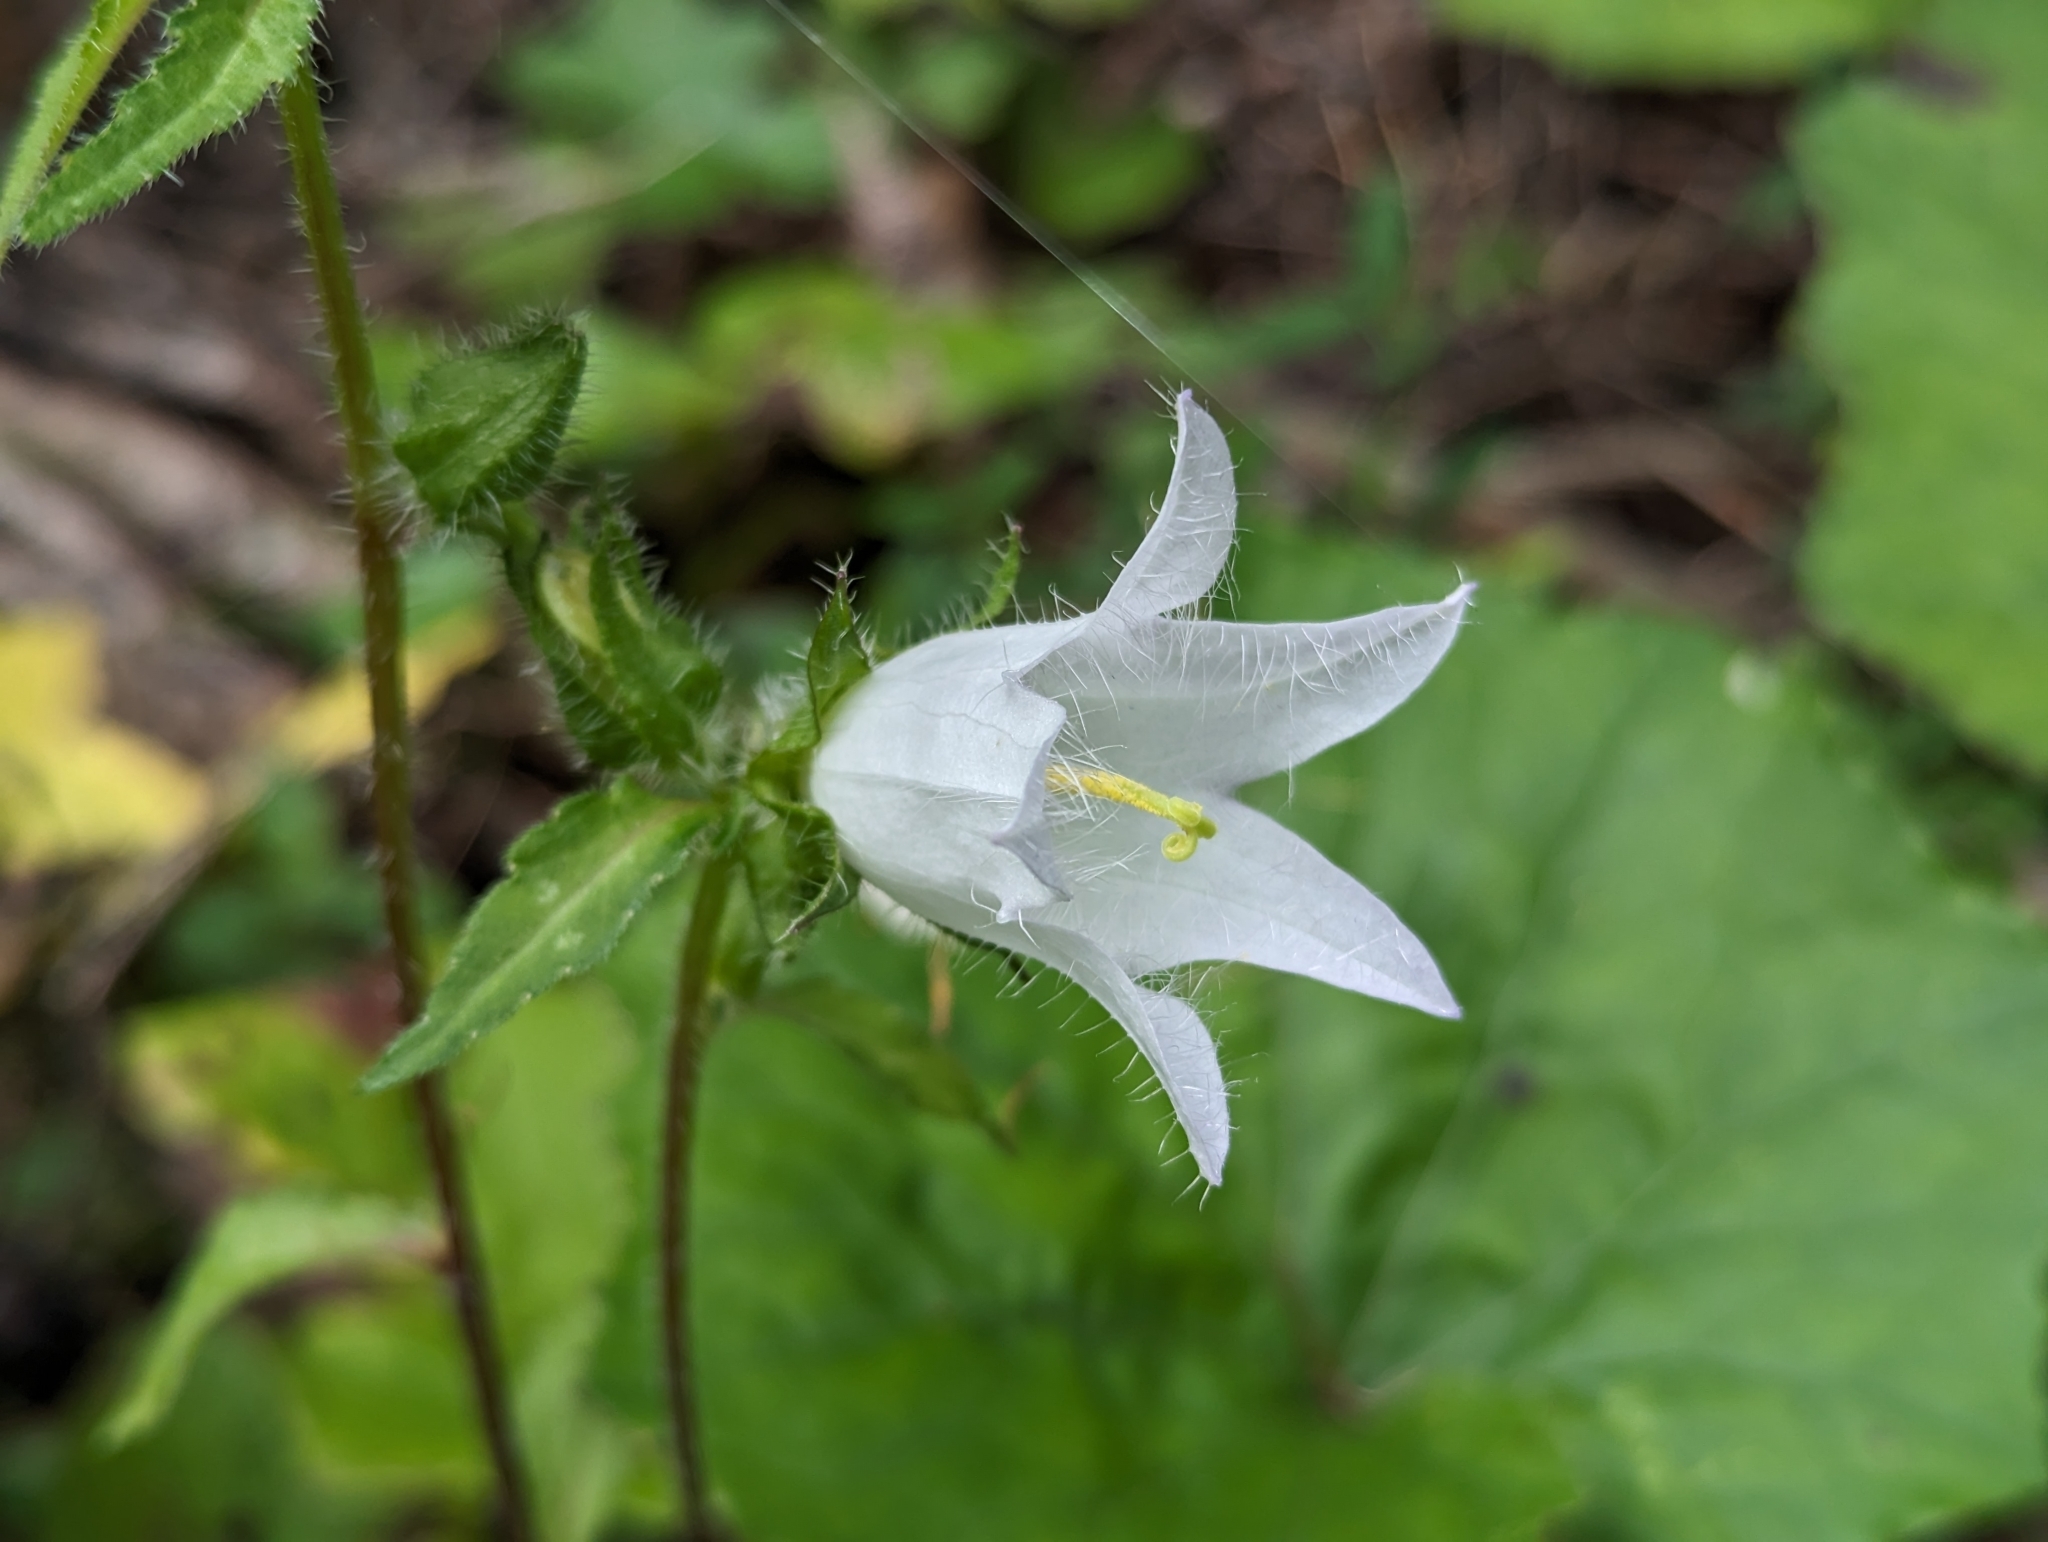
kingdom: Plantae
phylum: Tracheophyta
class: Magnoliopsida
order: Asterales
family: Campanulaceae
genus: Campanula
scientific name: Campanula trachelium
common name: Nettle-leaved bellflower
